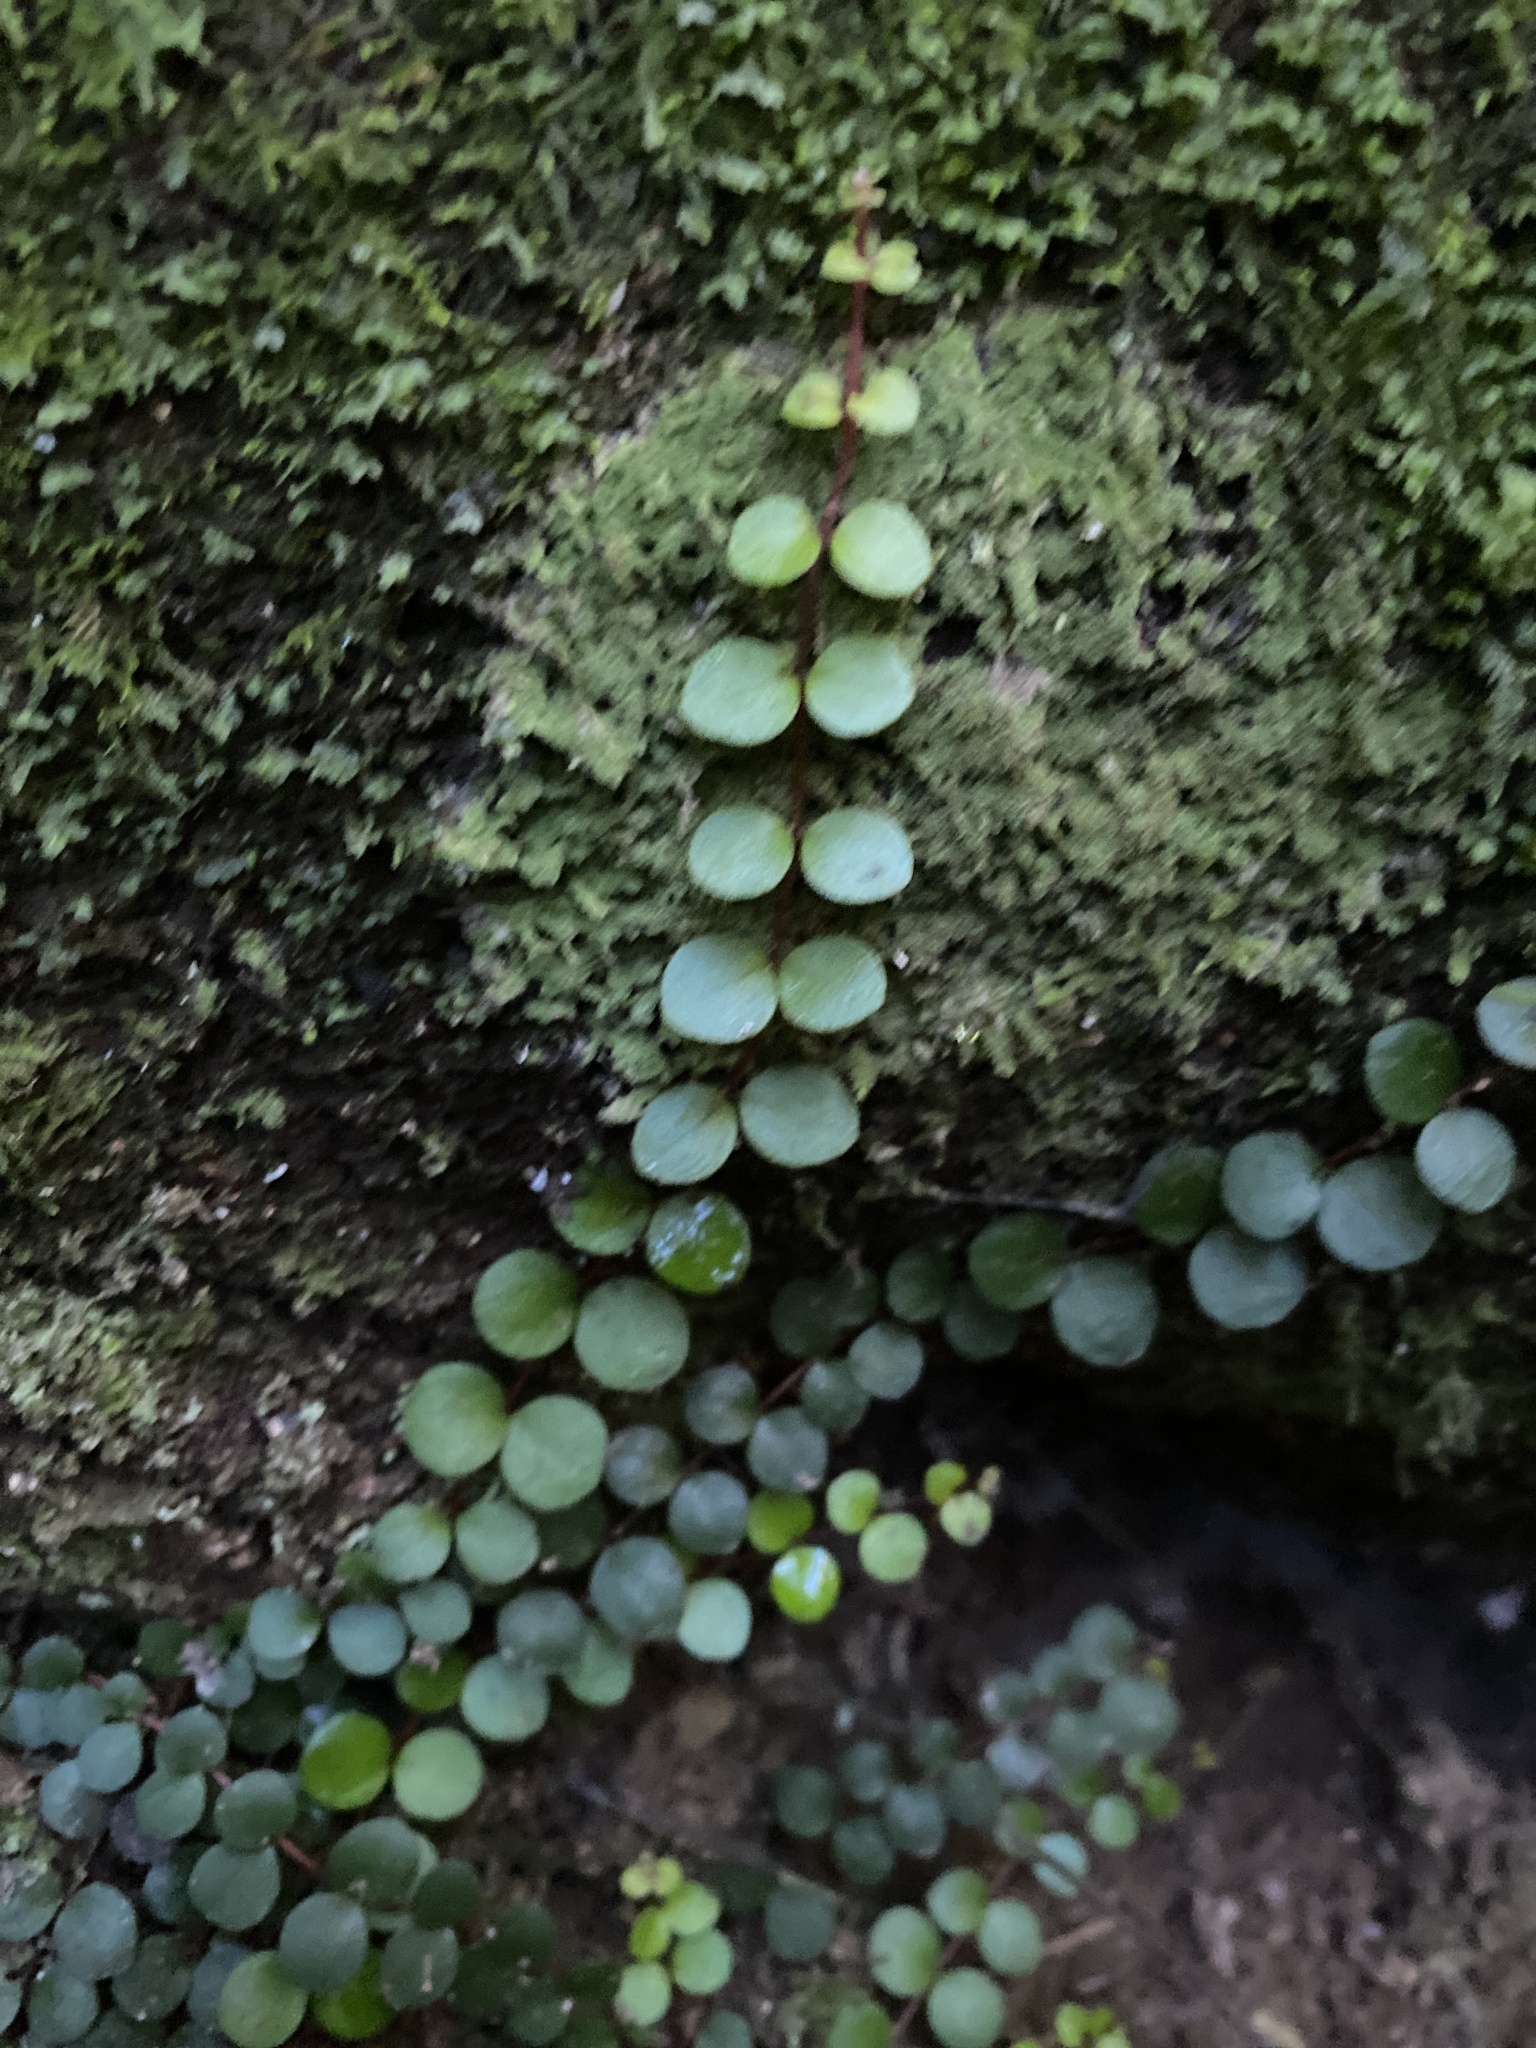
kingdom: Plantae
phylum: Tracheophyta
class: Magnoliopsida
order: Myrtales
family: Myrtaceae
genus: Metrosideros
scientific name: Metrosideros perforata
